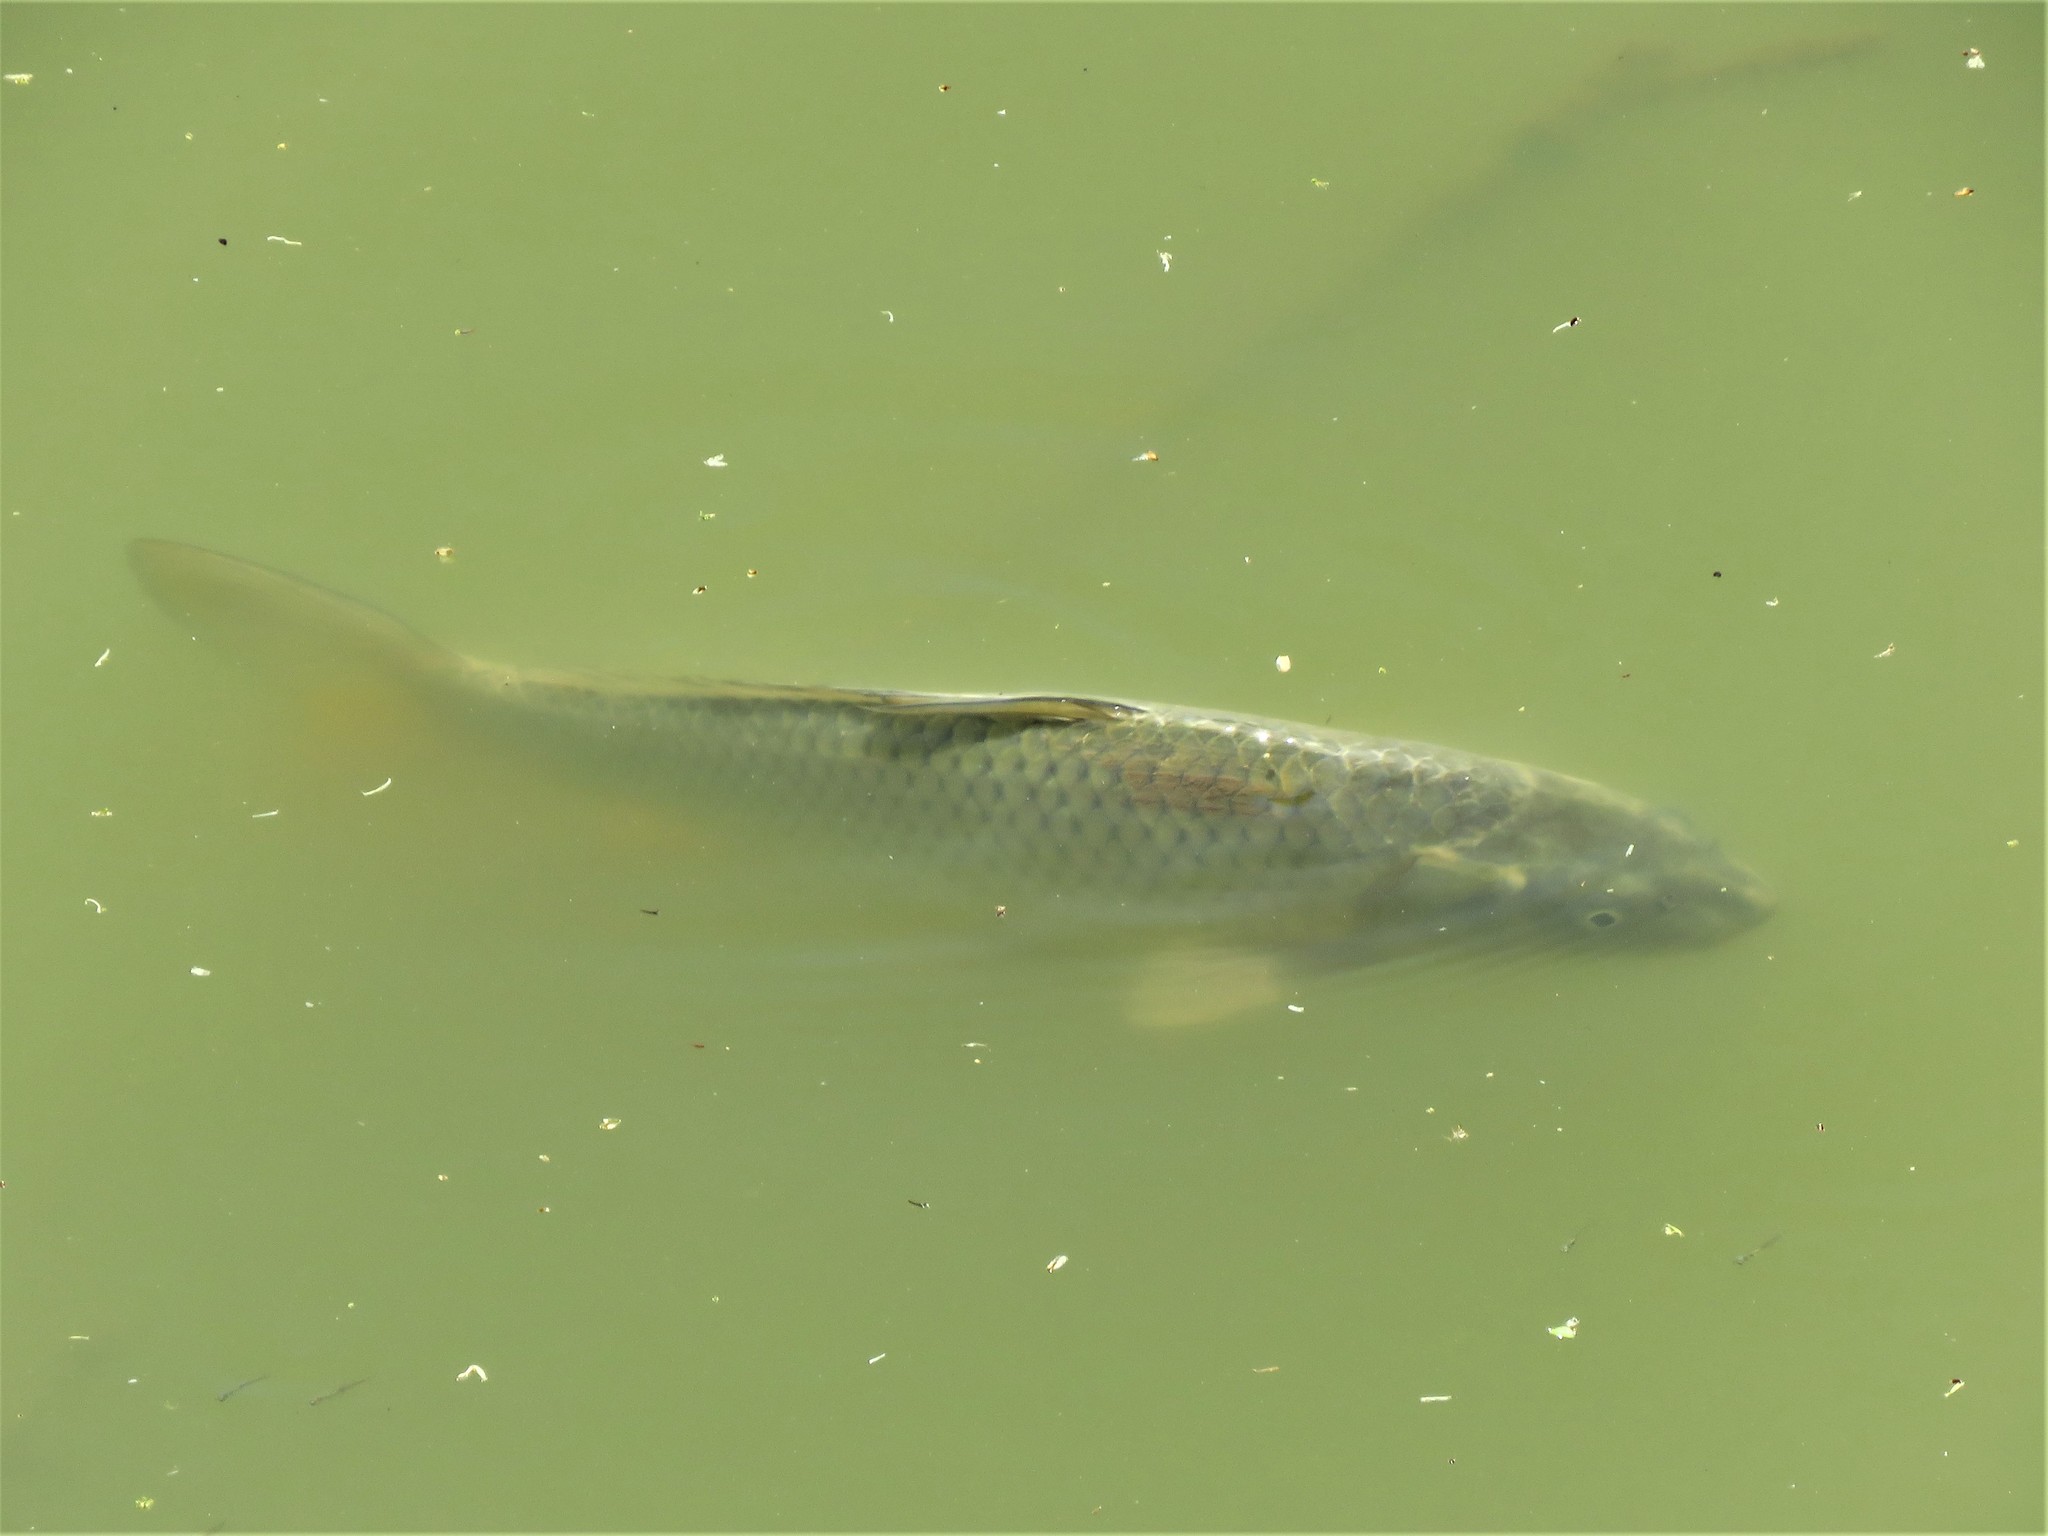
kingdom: Animalia
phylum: Chordata
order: Cypriniformes
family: Cyprinidae
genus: Cyprinus
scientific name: Cyprinus carpio
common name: Common carp
